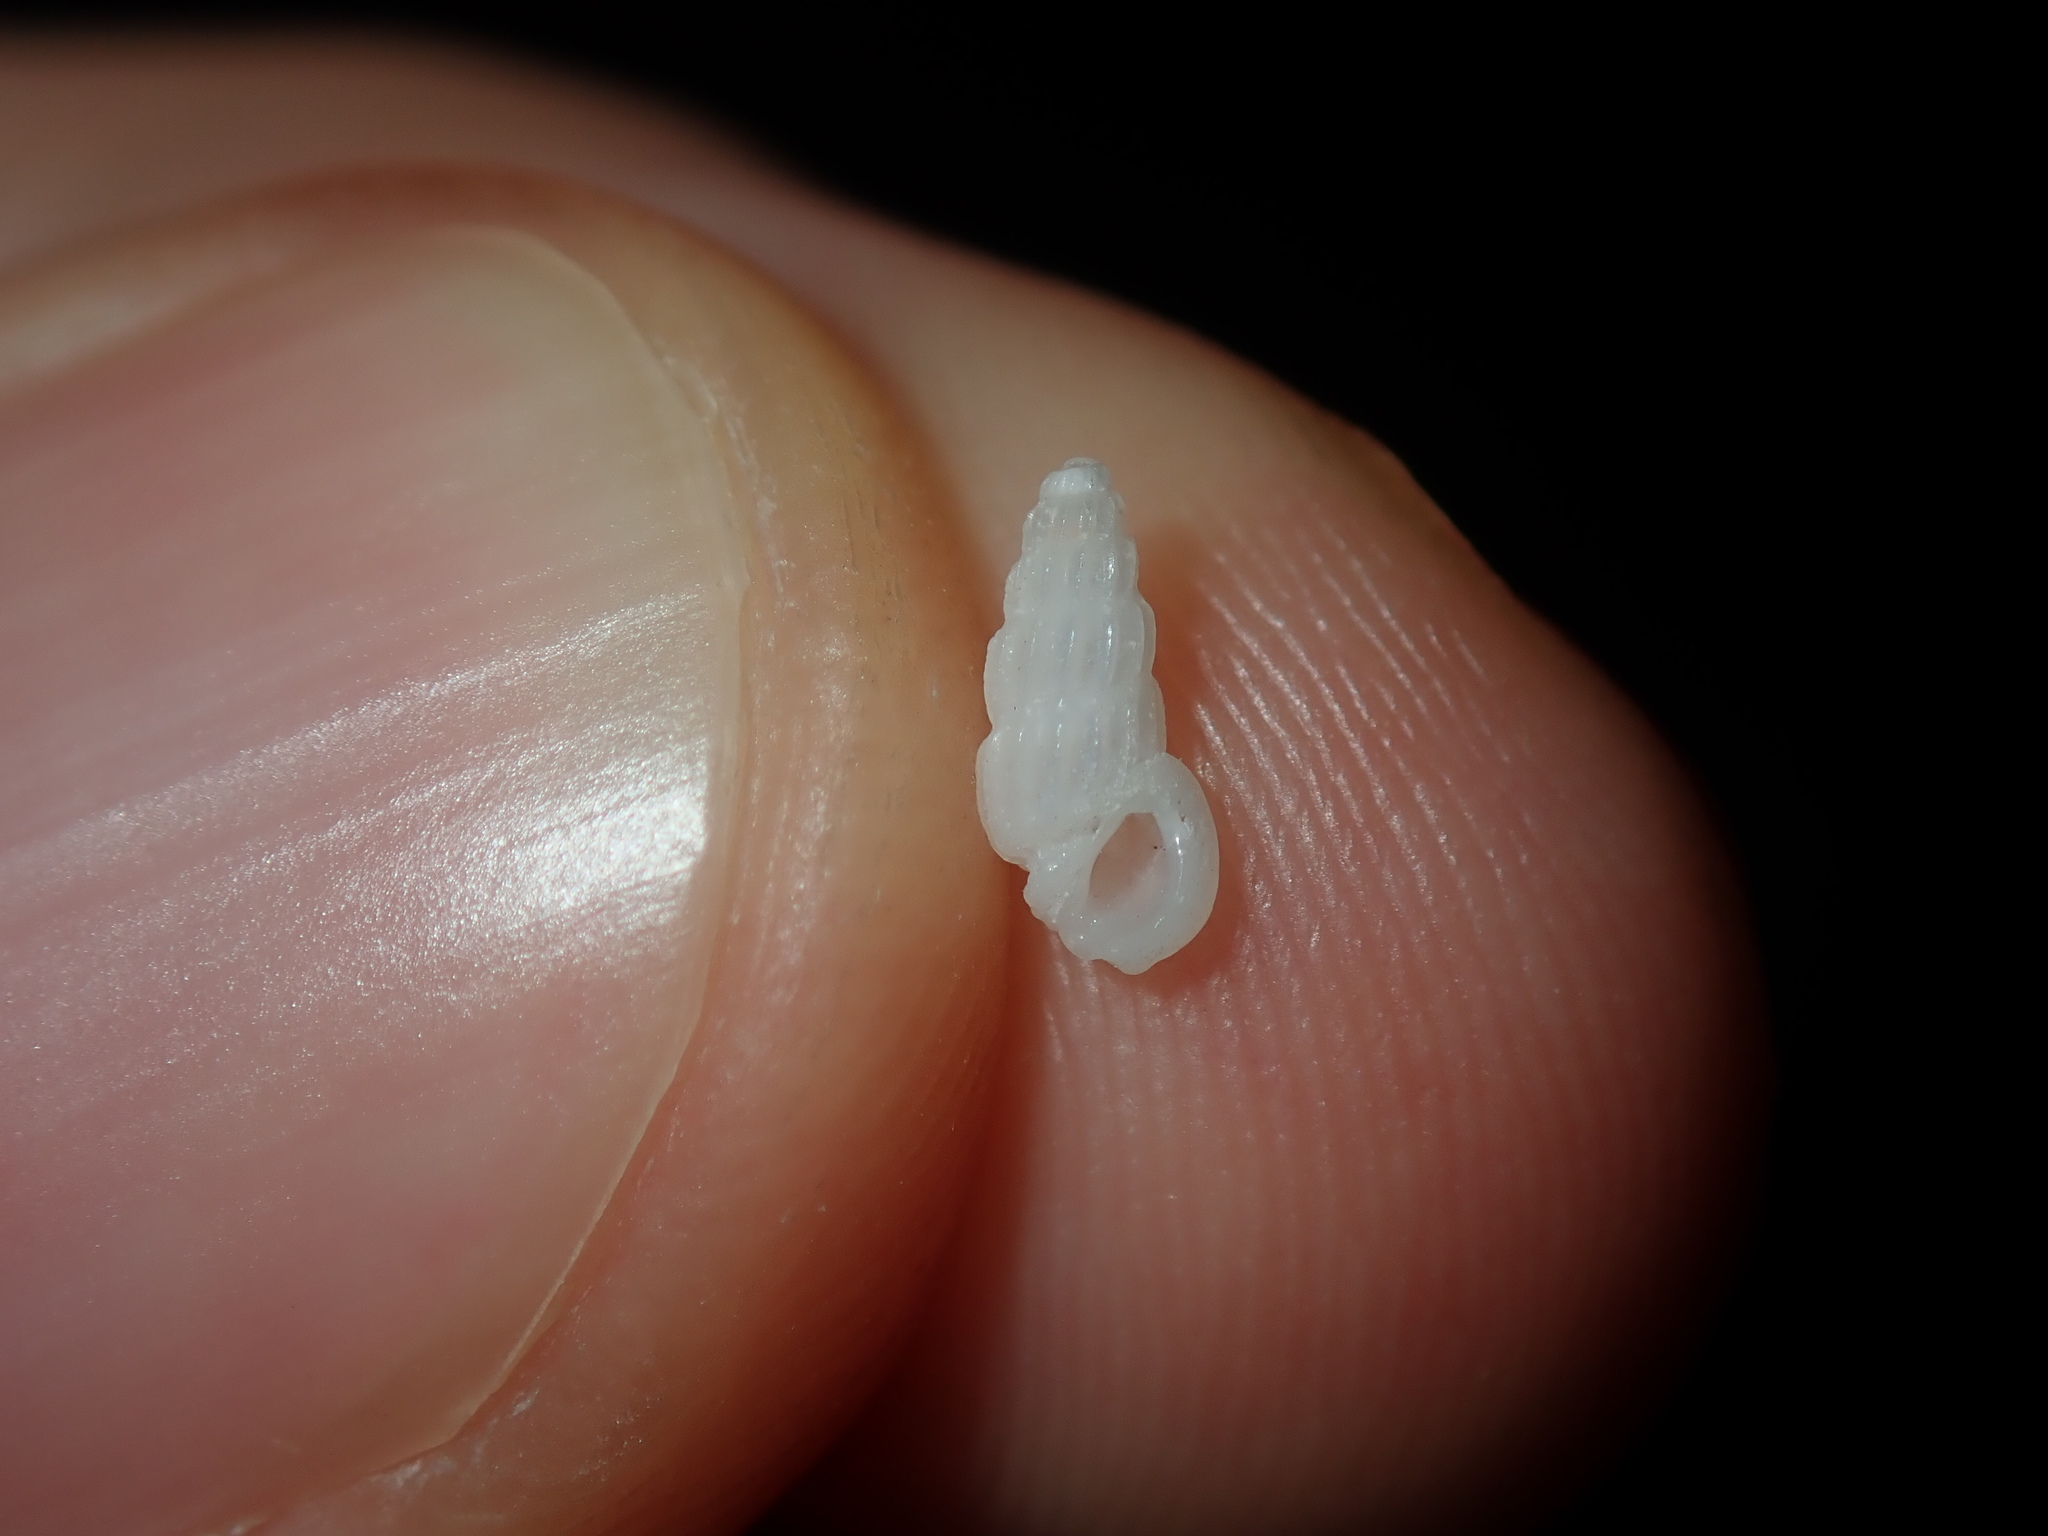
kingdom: Animalia
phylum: Mollusca
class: Gastropoda
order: Littorinimorpha
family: Rissoinidae
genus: Rissoina
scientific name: Rissoina hernandezi
